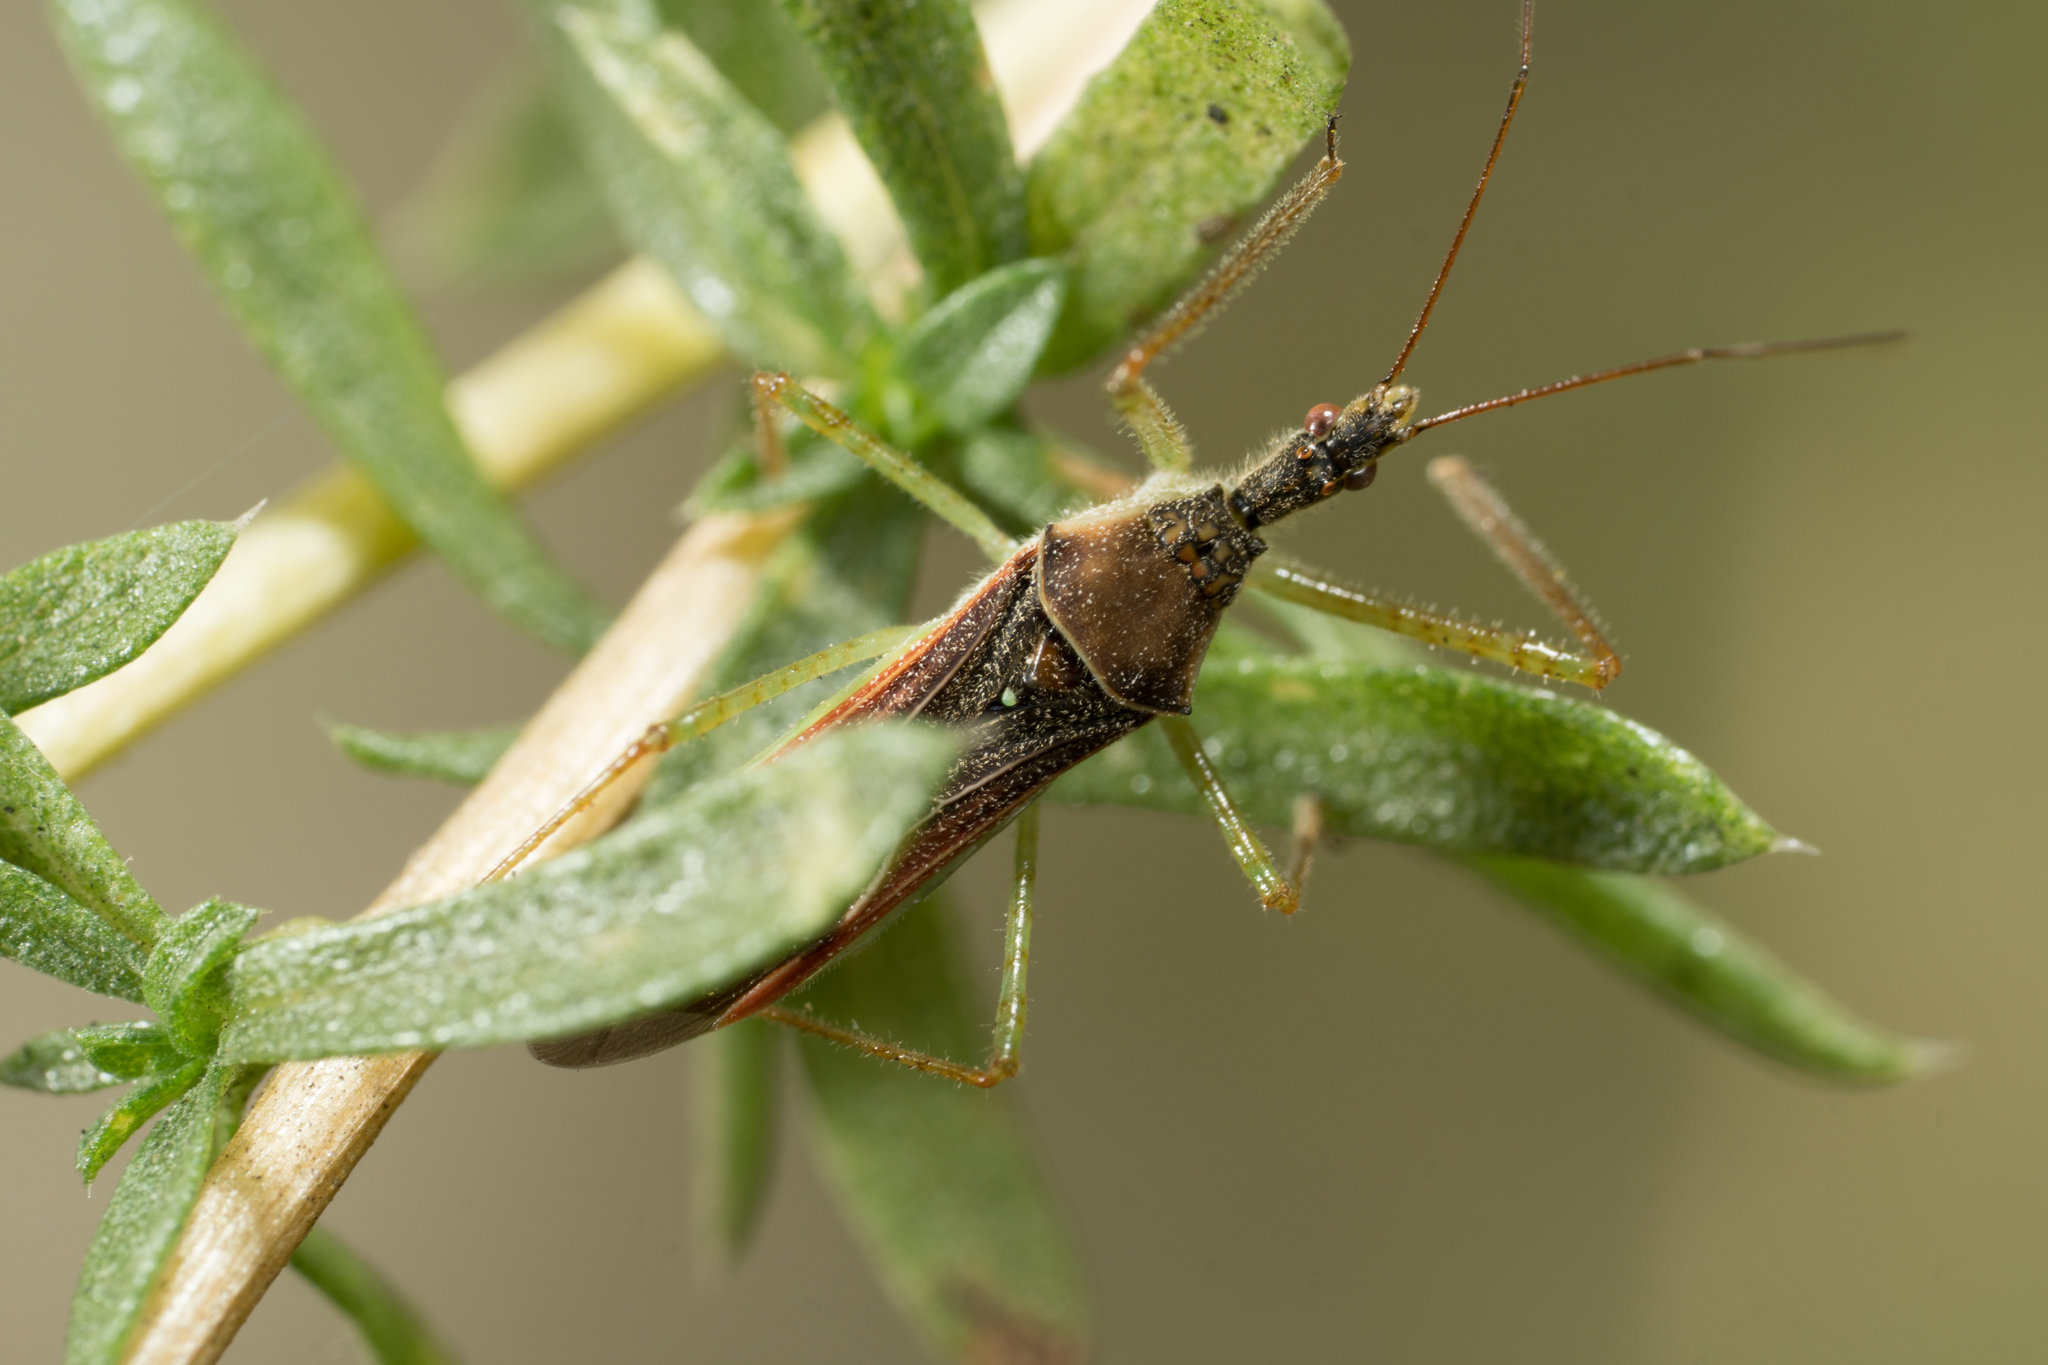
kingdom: Animalia
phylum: Arthropoda
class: Insecta
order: Hemiptera
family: Reduviidae
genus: Zelus
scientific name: Zelus renardii
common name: Assassin bug
